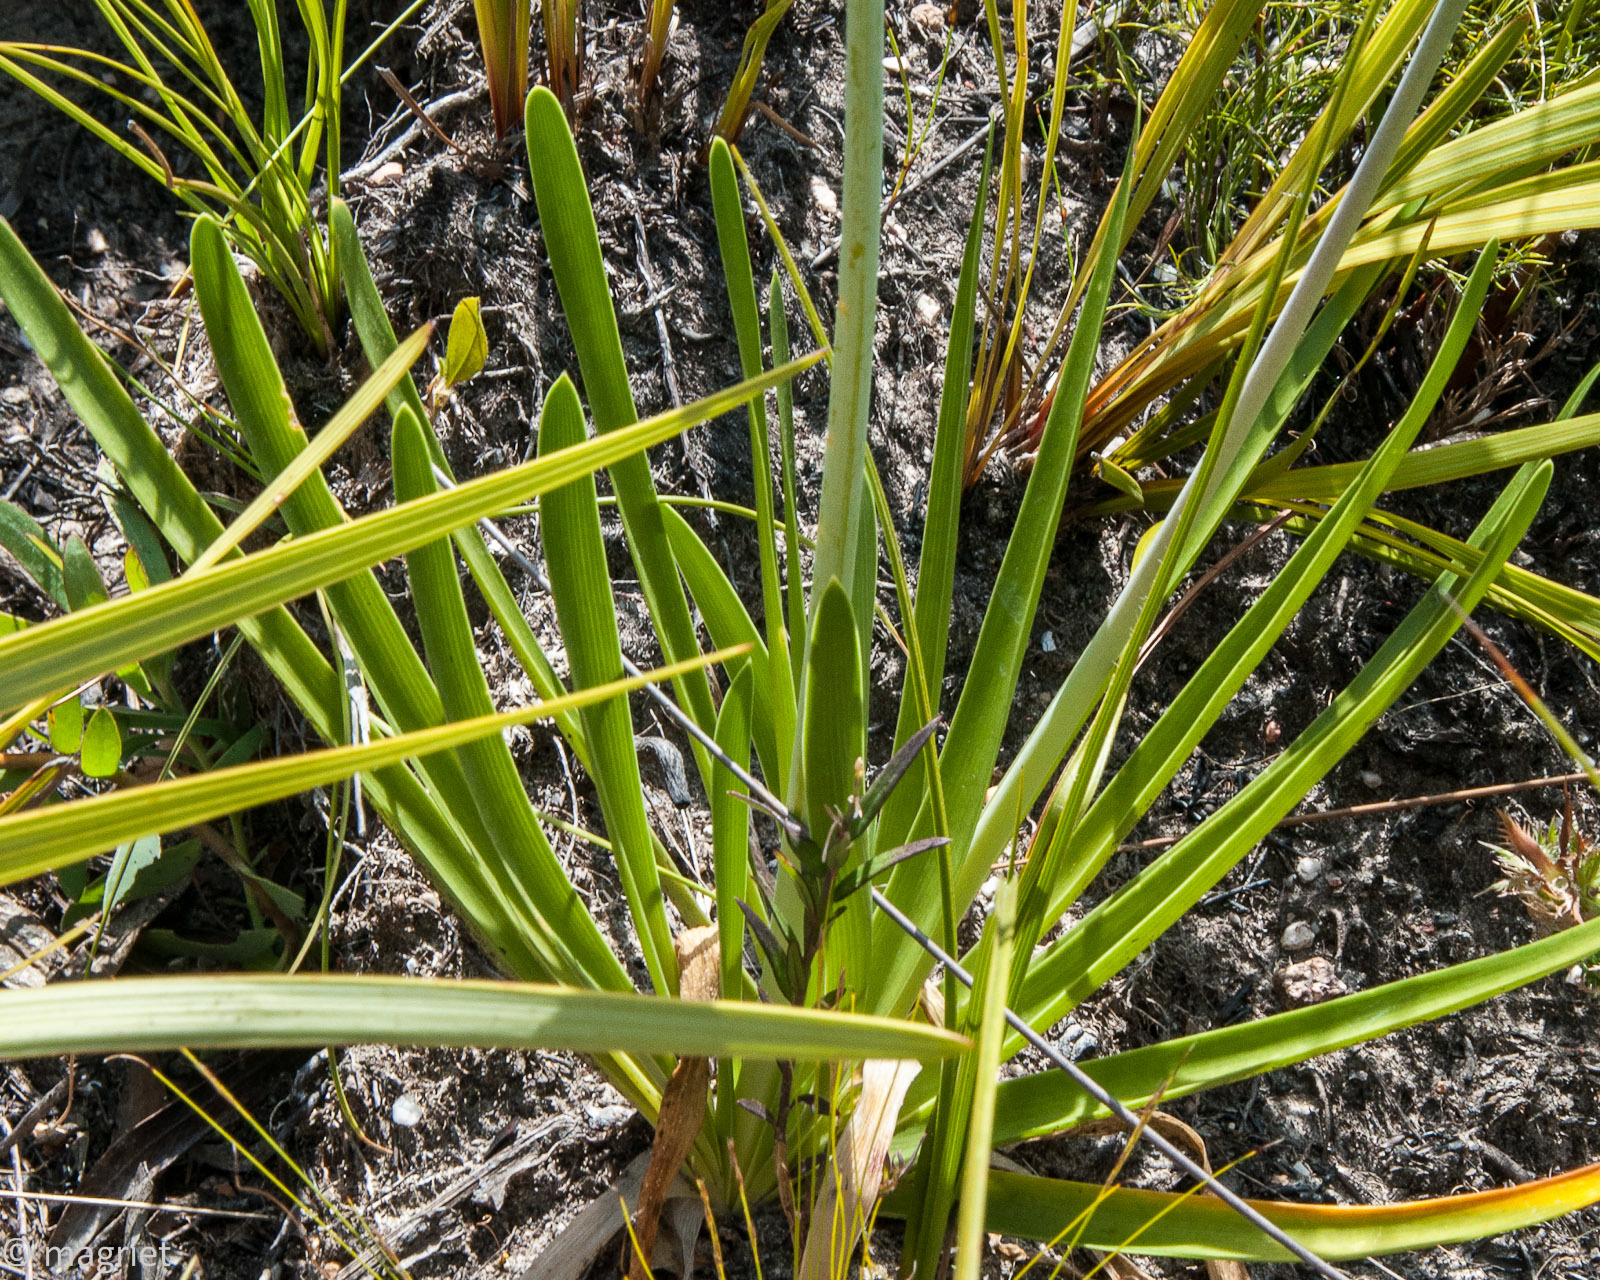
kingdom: Plantae
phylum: Tracheophyta
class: Liliopsida
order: Asparagales
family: Amaryllidaceae
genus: Agapanthus
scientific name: Agapanthus africanus
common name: Lily-of-the-nile
